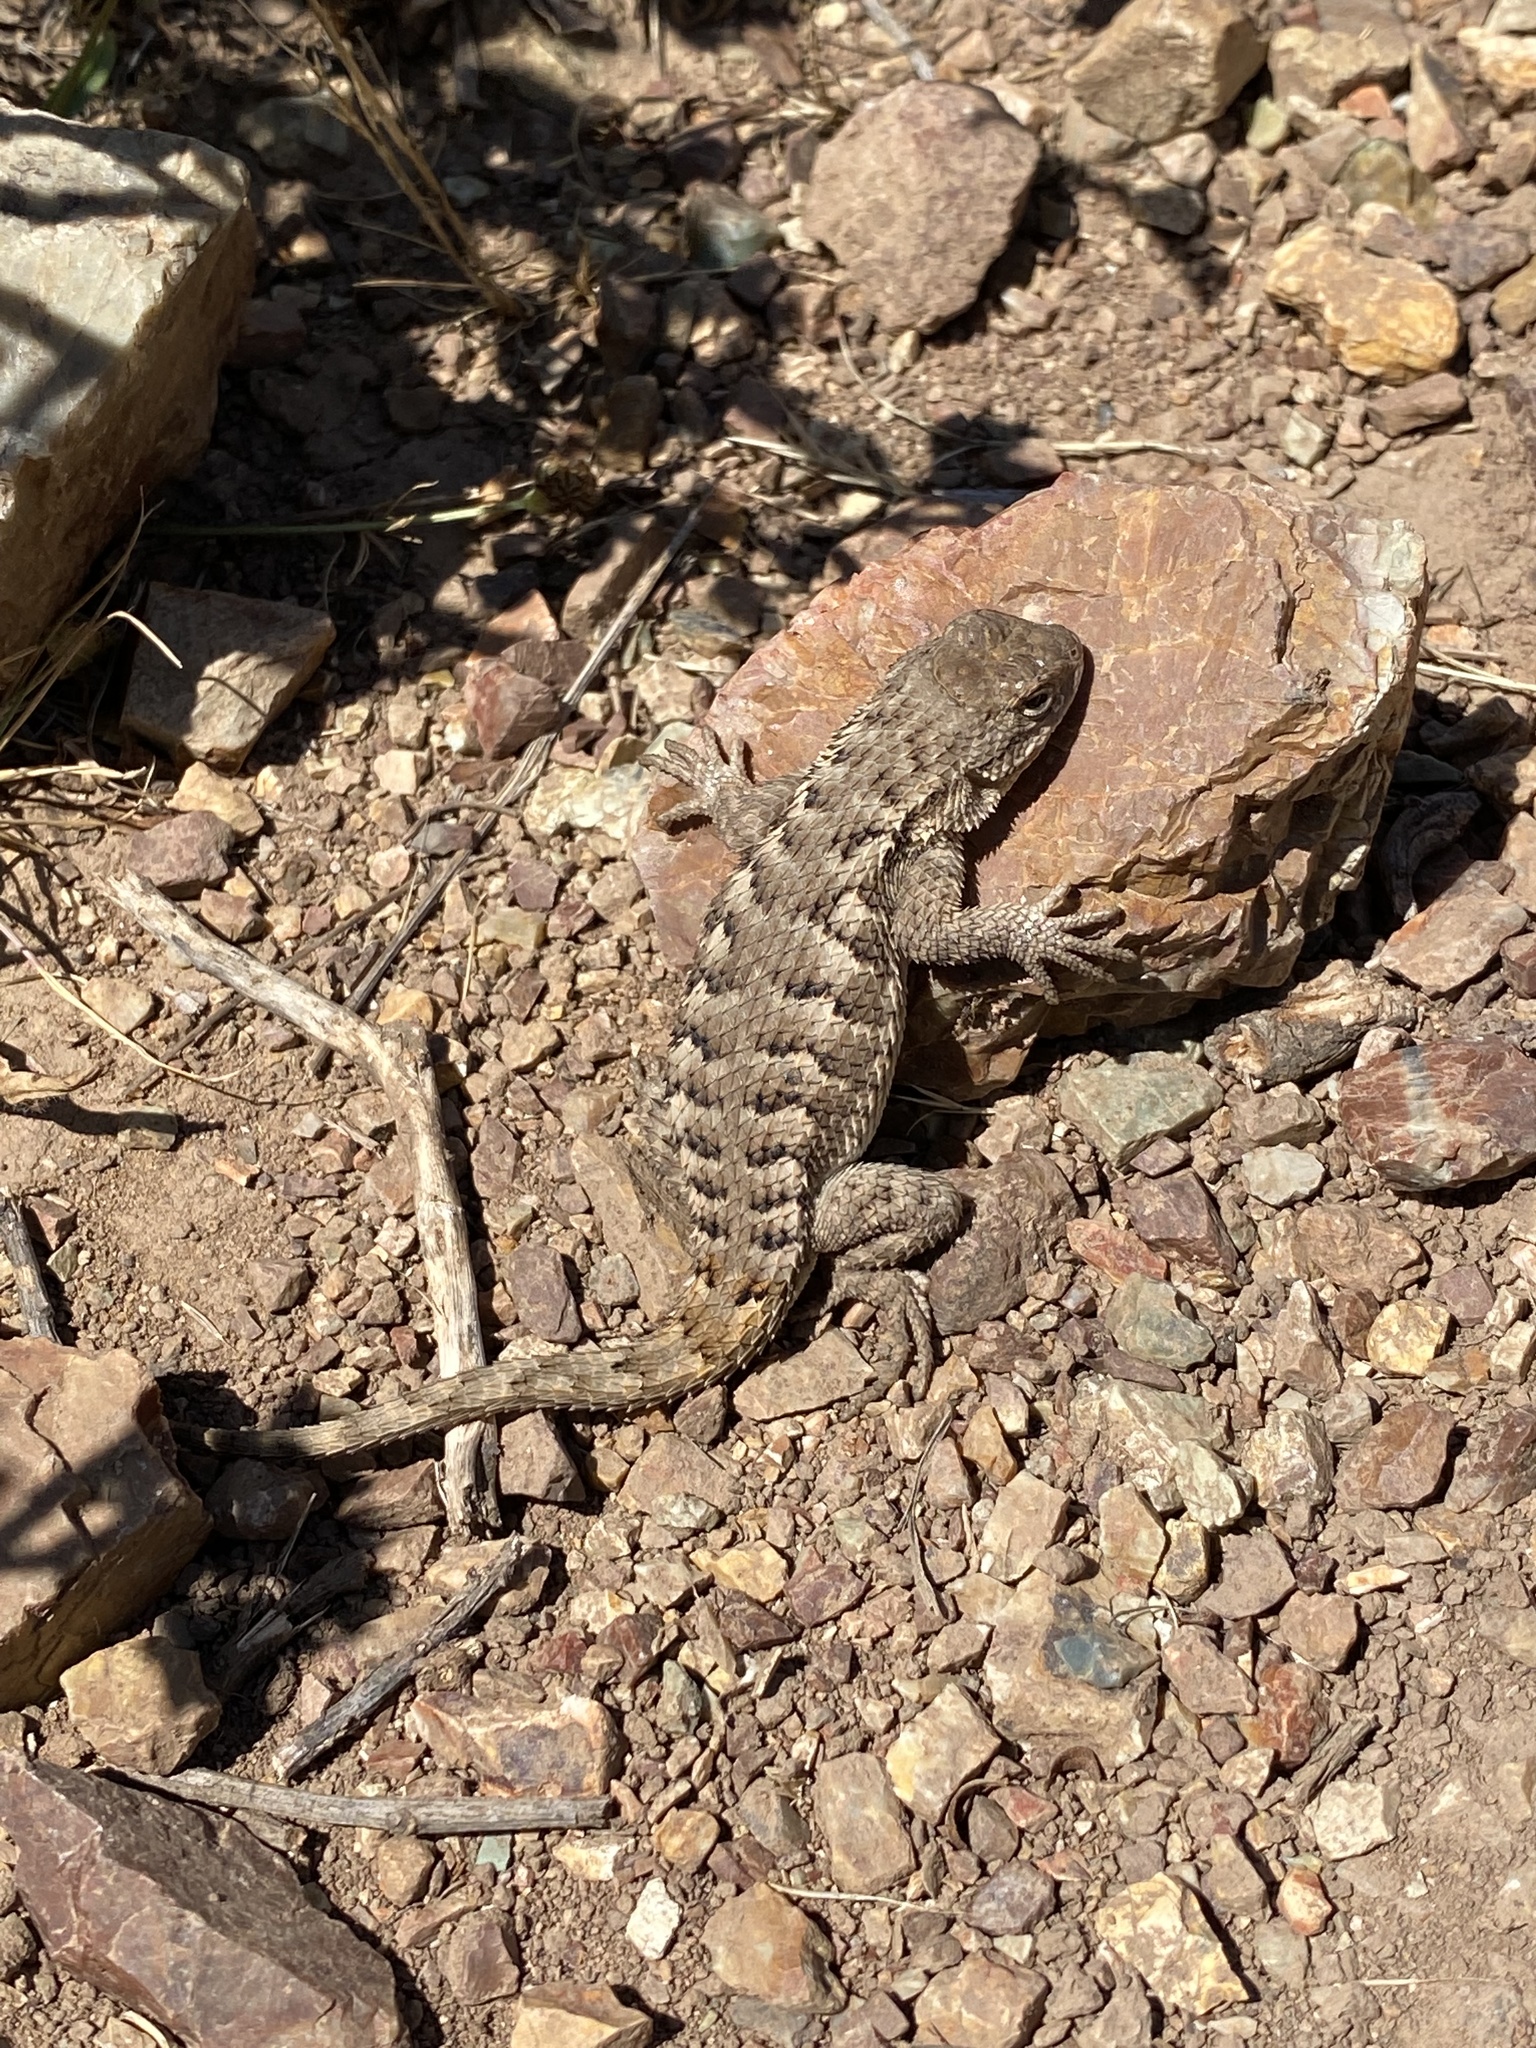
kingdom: Animalia
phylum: Chordata
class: Squamata
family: Phrynosomatidae
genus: Sceloporus
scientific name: Sceloporus occidentalis
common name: Western fence lizard
